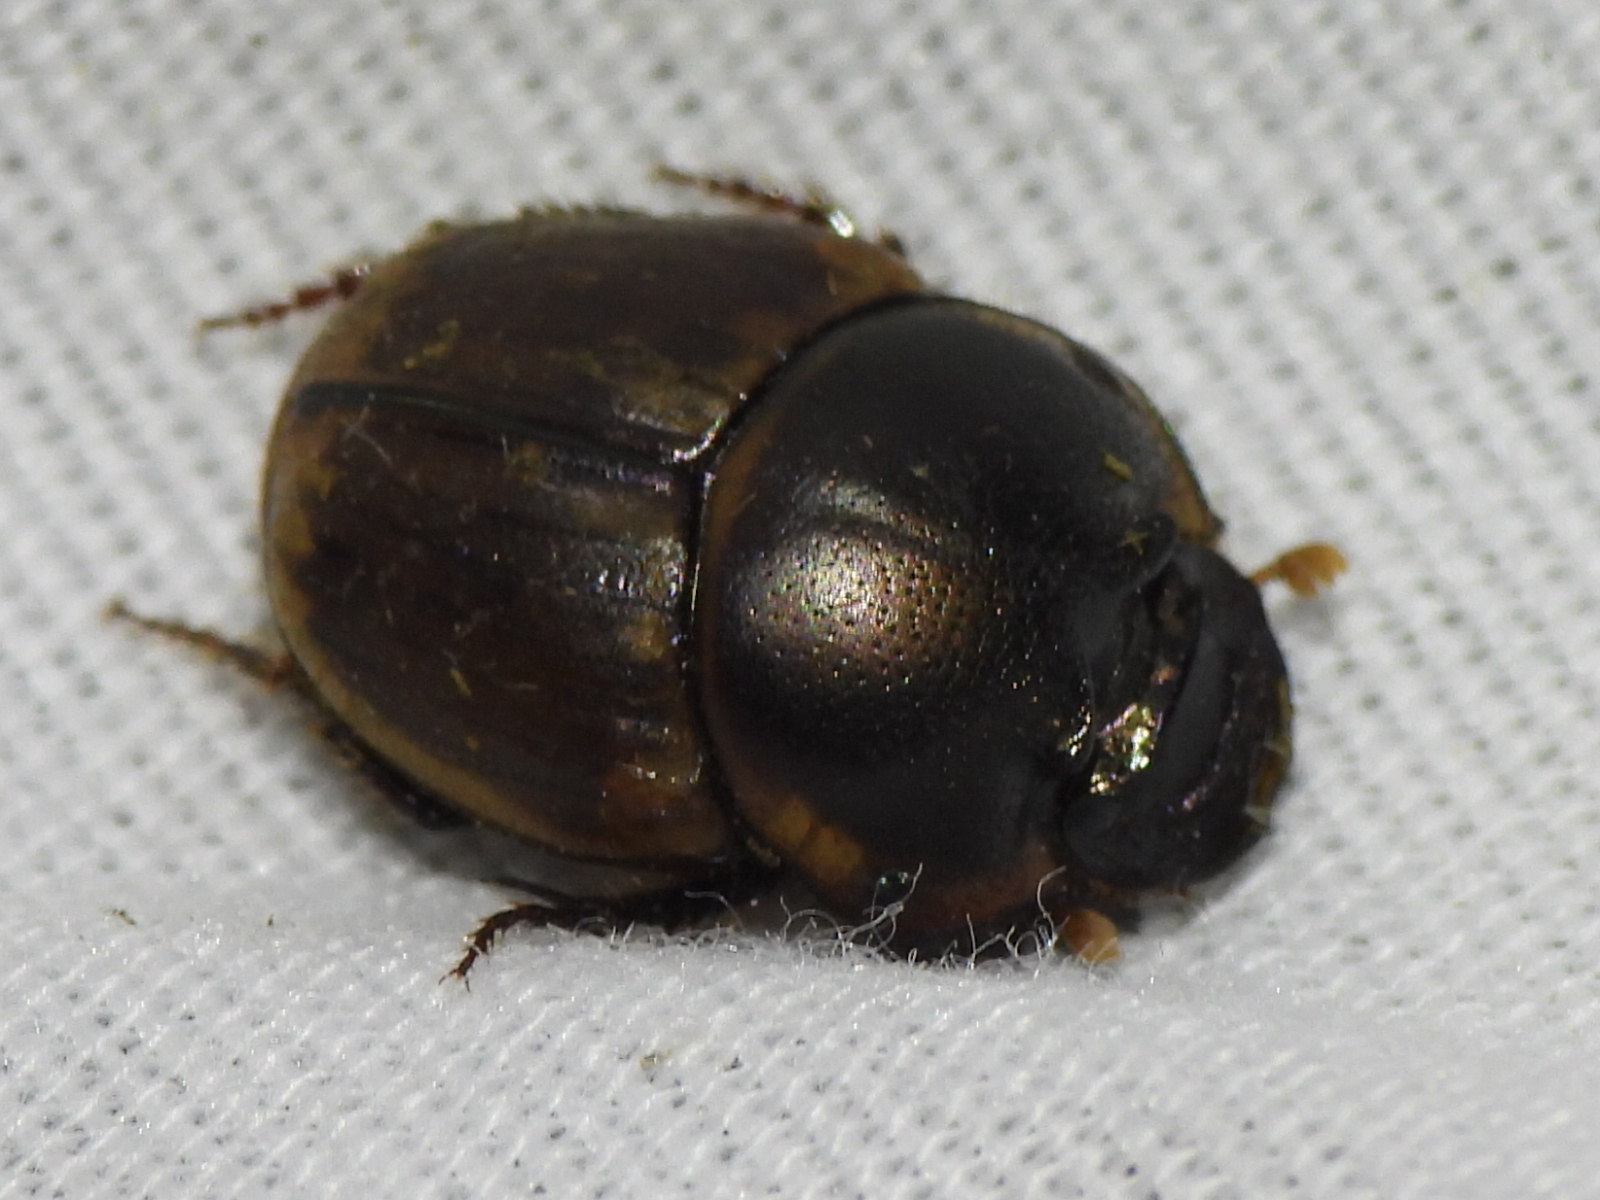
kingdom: Animalia
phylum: Arthropoda
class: Insecta
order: Coleoptera
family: Scarabaeidae
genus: Digitonthophagus
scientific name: Digitonthophagus gazella
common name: Brown dung beetle
